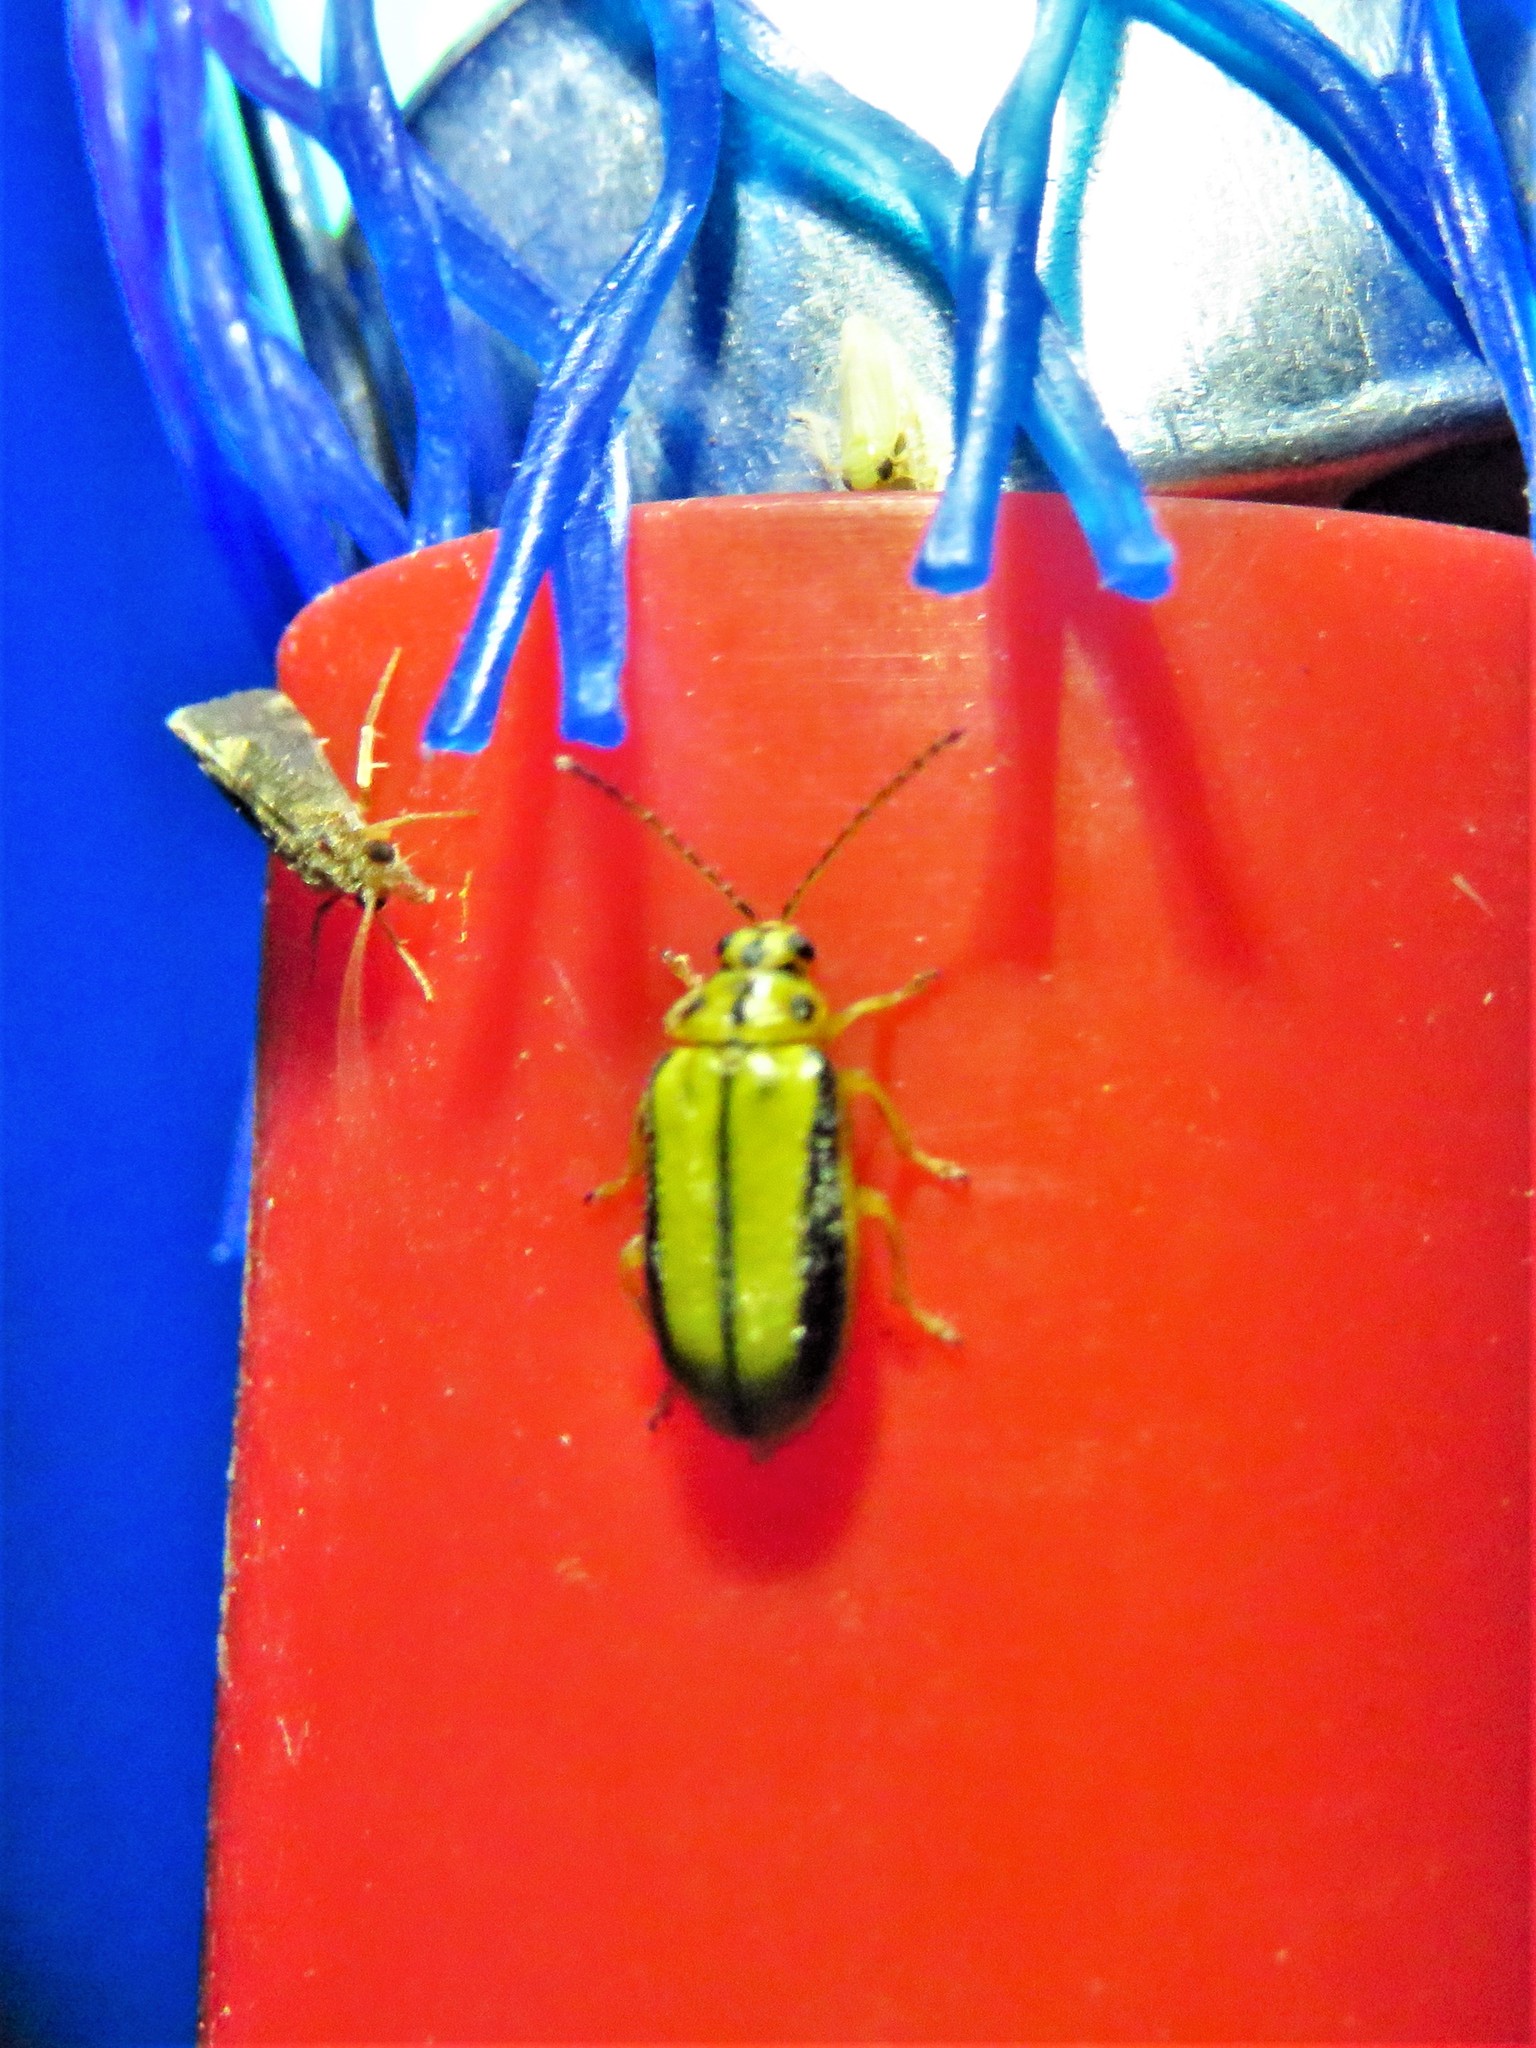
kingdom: Animalia
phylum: Arthropoda
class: Insecta
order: Coleoptera
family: Chrysomelidae
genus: Xanthogaleruca
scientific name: Xanthogaleruca luteola
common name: Elm leaf beetle
